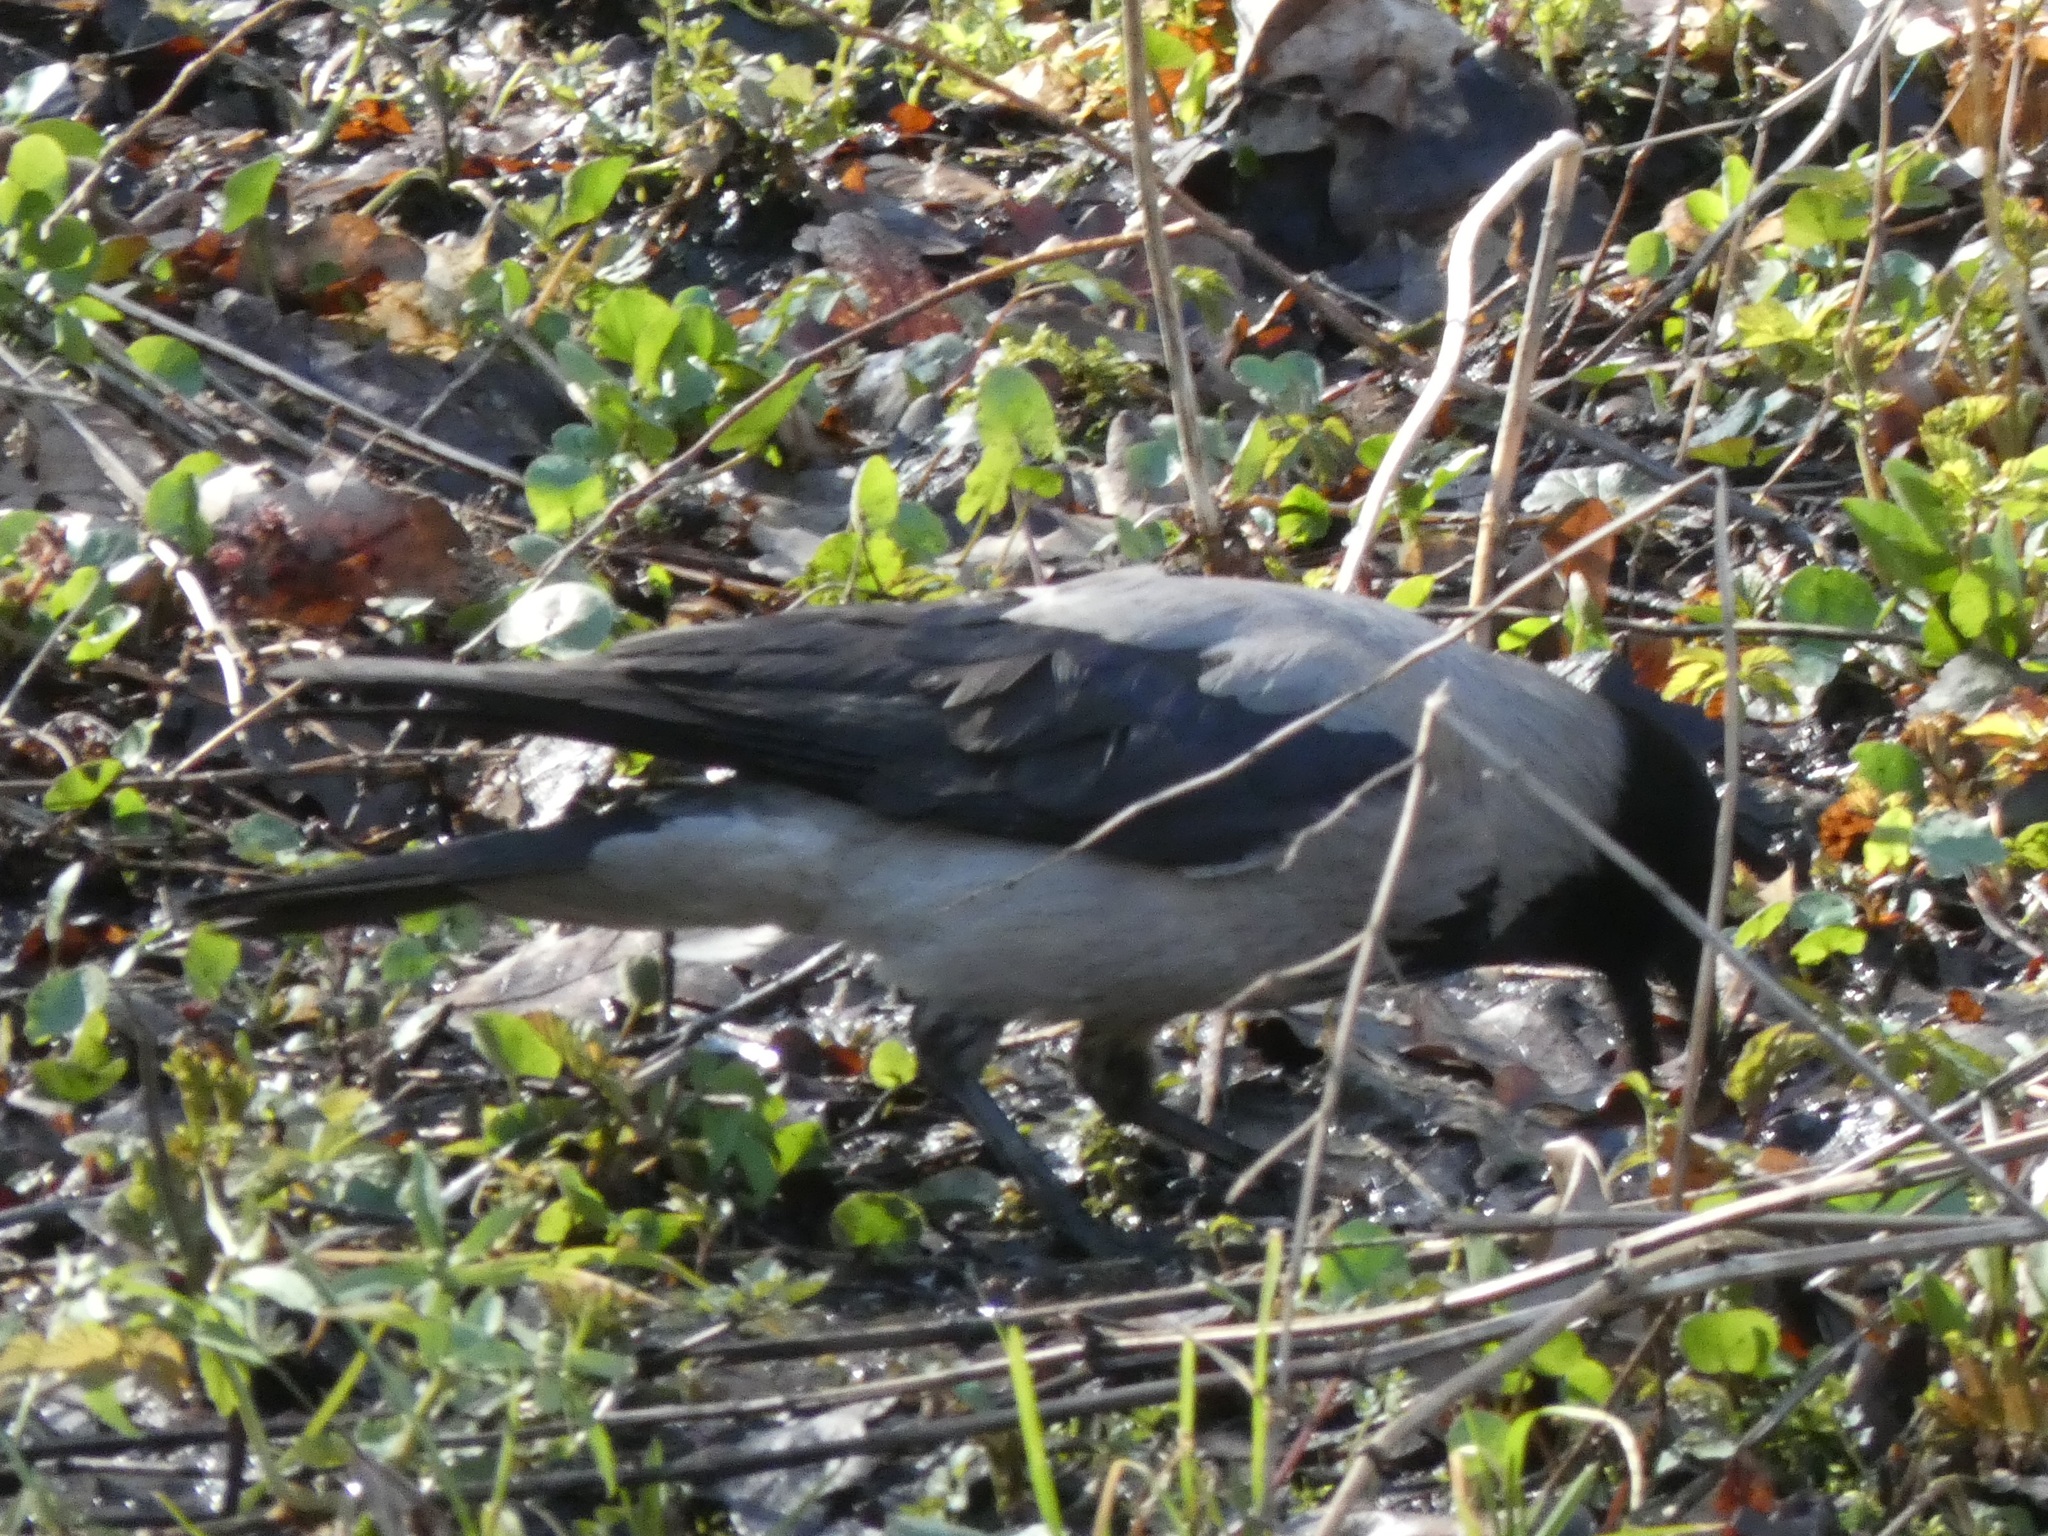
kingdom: Animalia
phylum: Chordata
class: Aves
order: Passeriformes
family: Corvidae
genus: Corvus
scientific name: Corvus cornix
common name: Hooded crow
